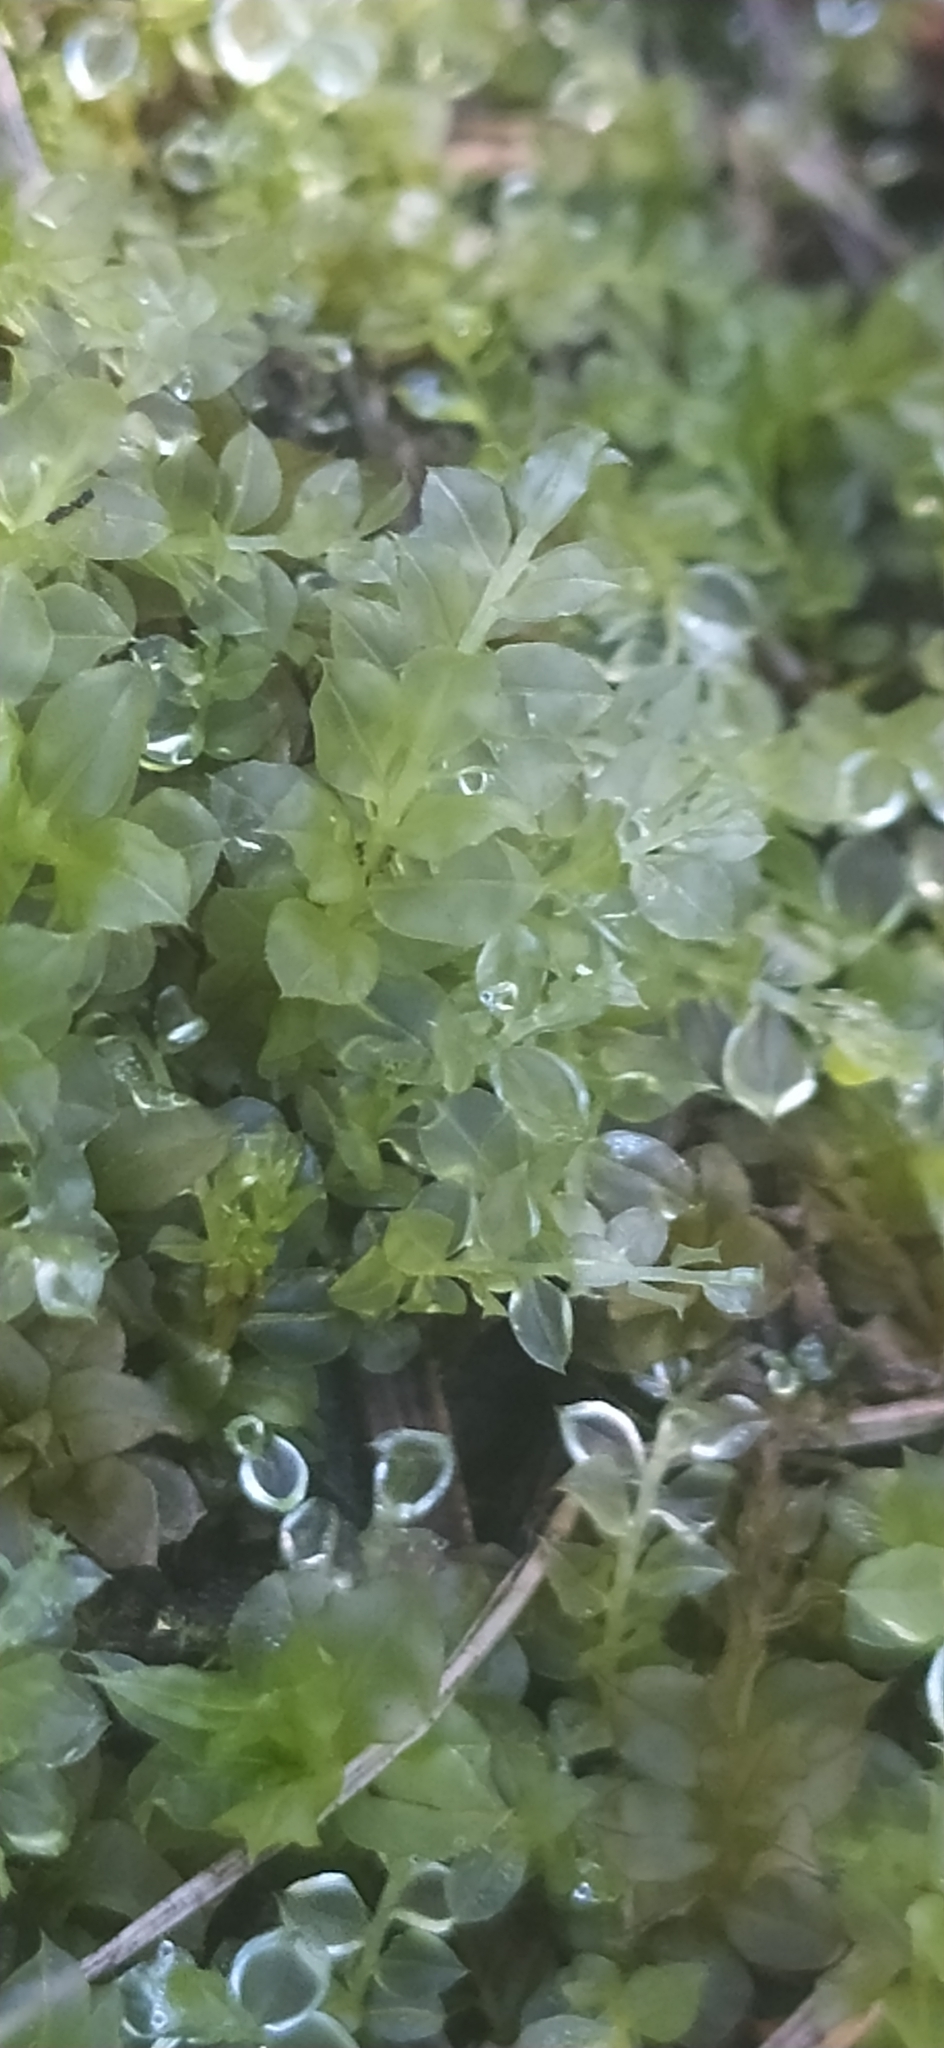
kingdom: Plantae
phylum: Bryophyta
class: Bryopsida
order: Bryales
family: Mniaceae
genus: Plagiomnium
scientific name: Plagiomnium cuspidatum
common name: Woodsy leafy moss
